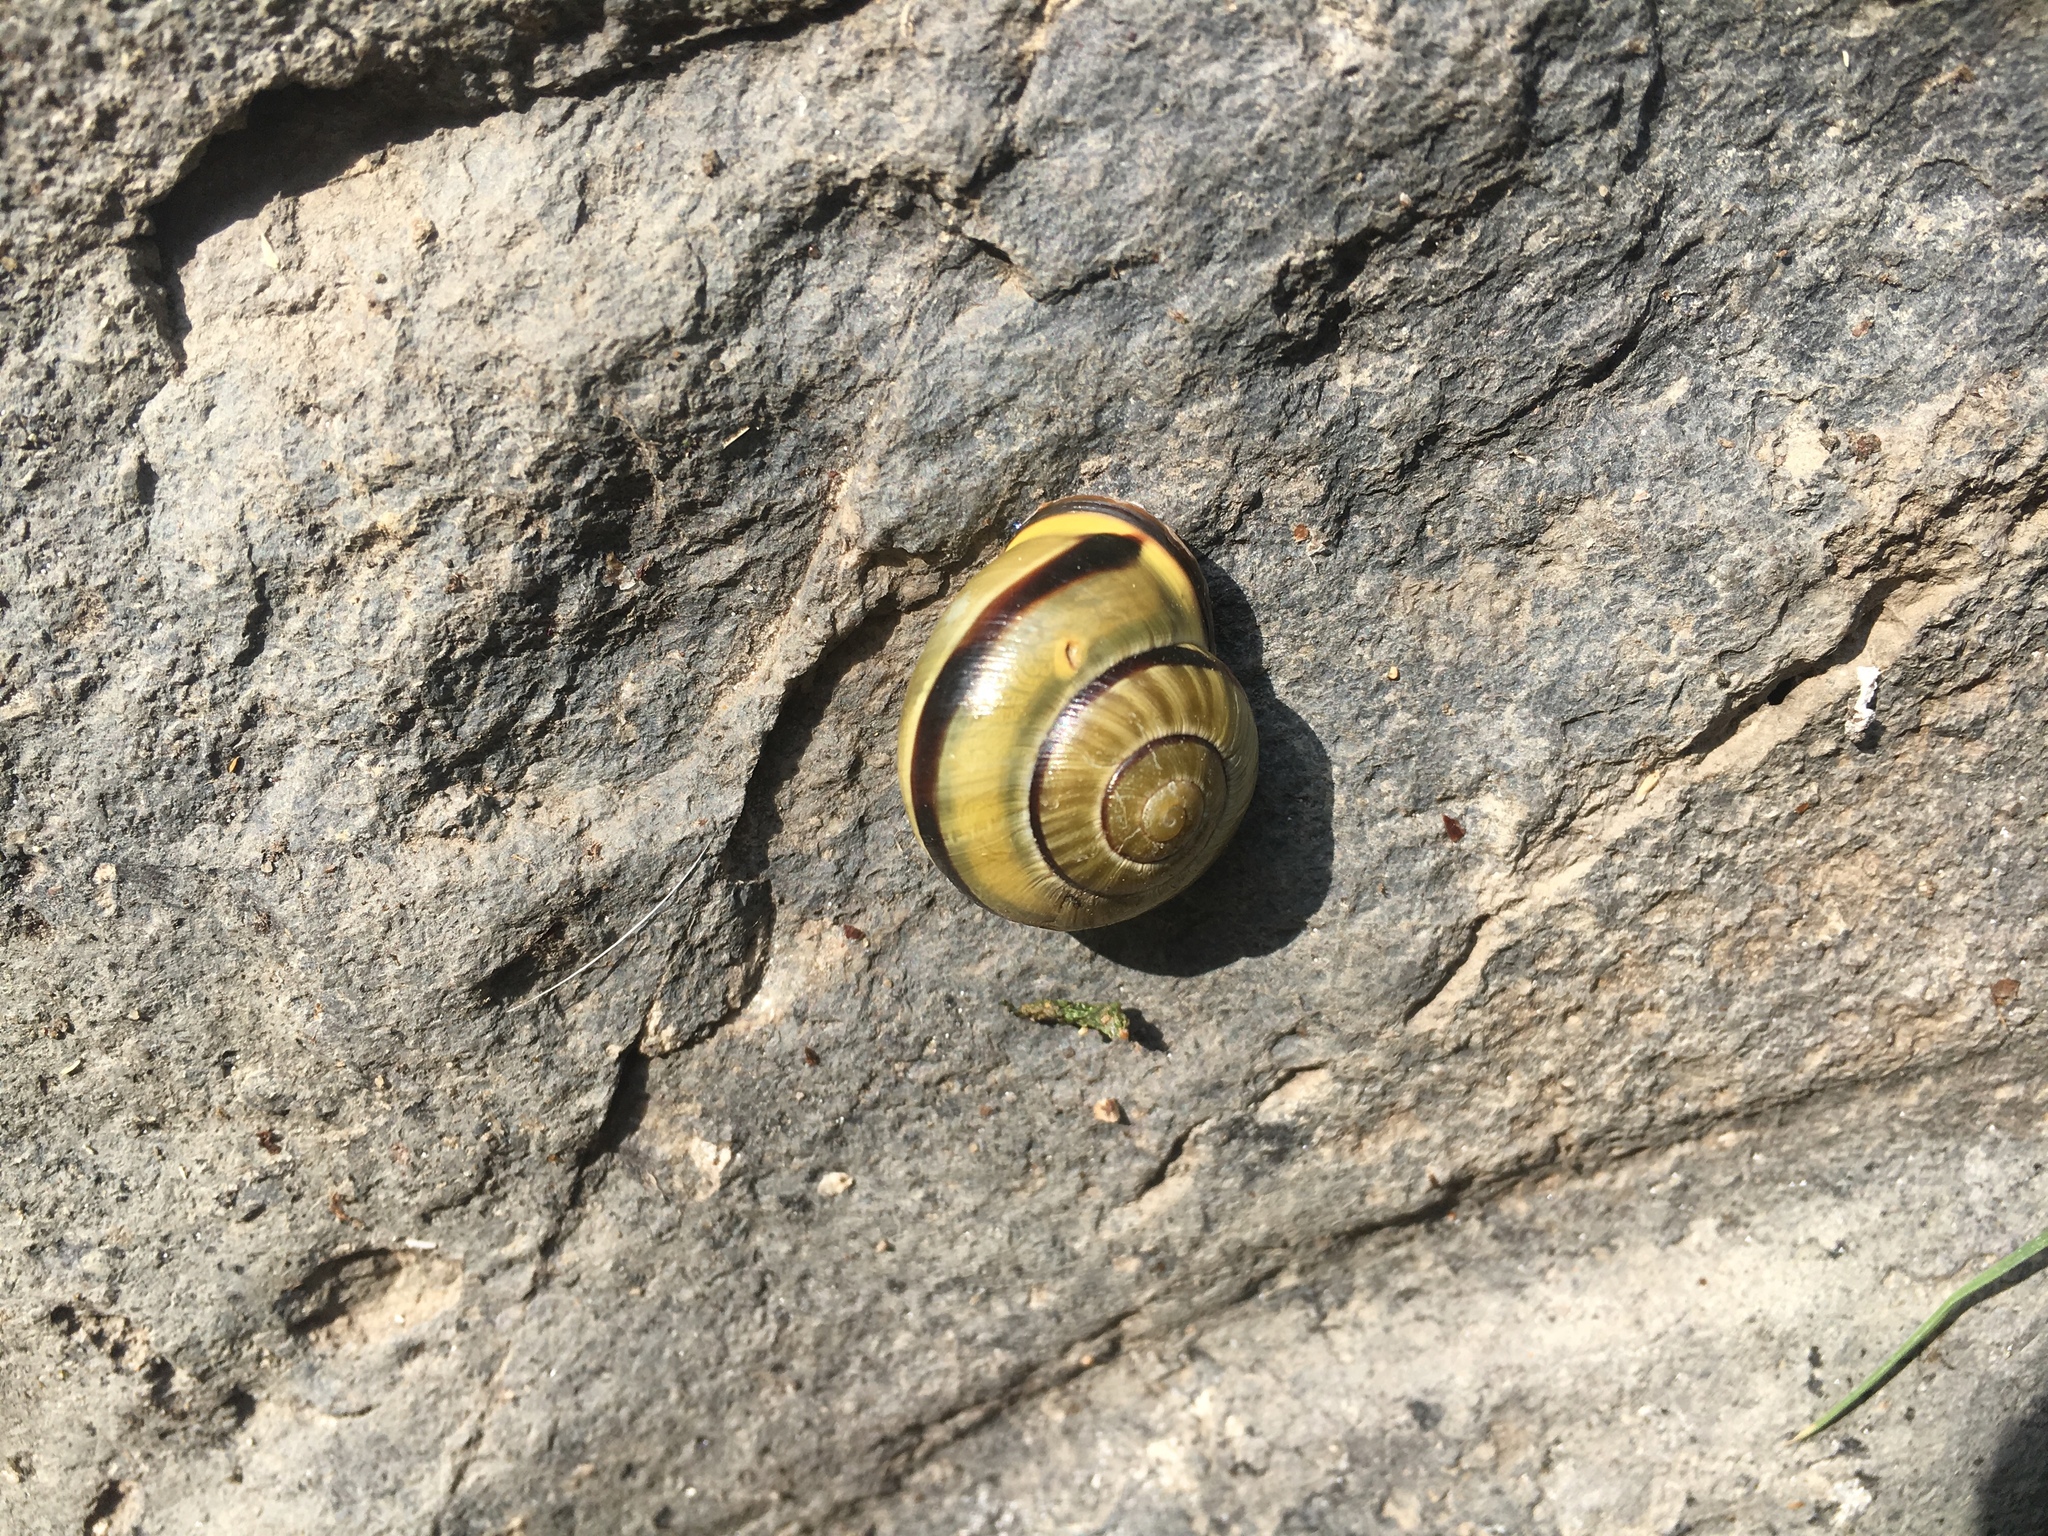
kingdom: Animalia
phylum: Mollusca
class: Gastropoda
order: Stylommatophora
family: Helicidae
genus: Cepaea
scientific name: Cepaea nemoralis
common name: Grovesnail
